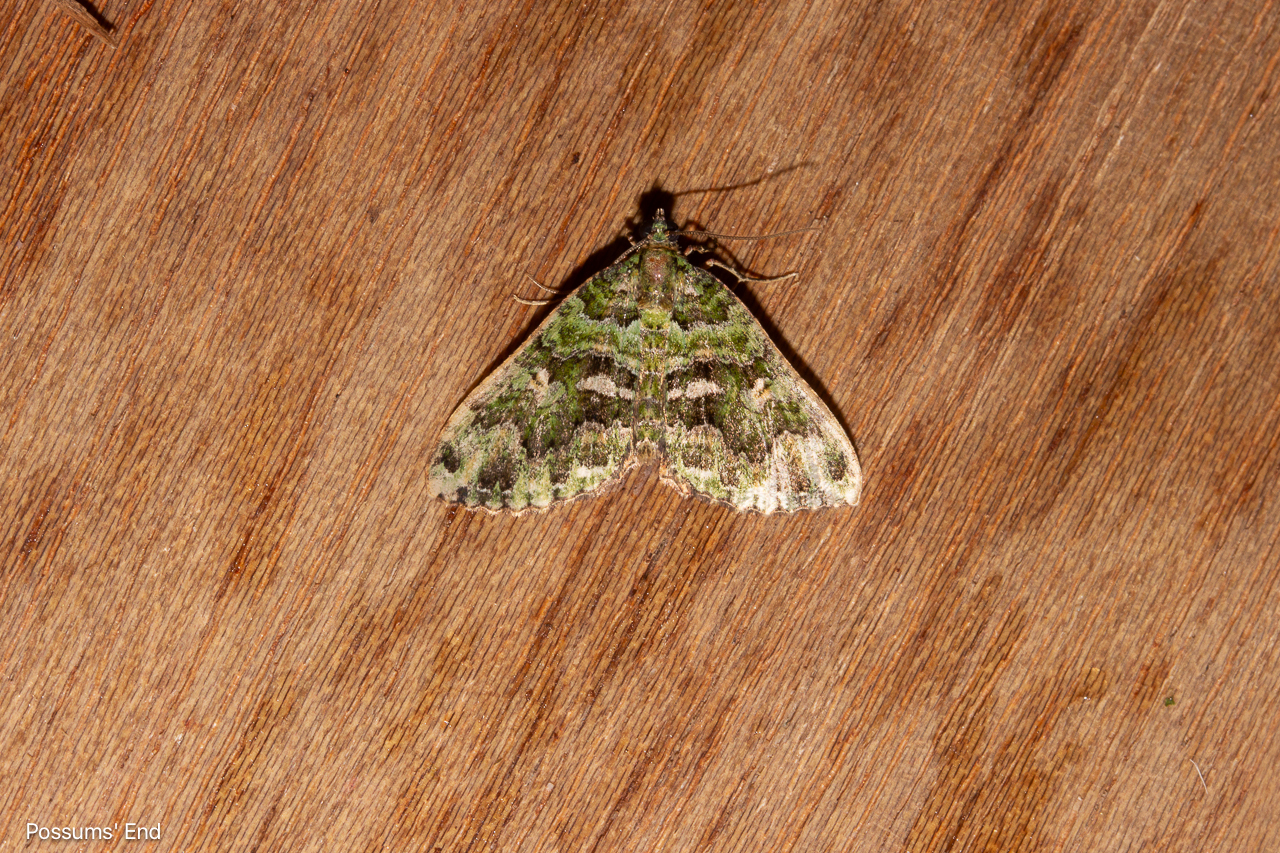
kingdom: Animalia
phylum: Arthropoda
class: Insecta
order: Lepidoptera
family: Geometridae
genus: Austrocidaria
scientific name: Austrocidaria similata
